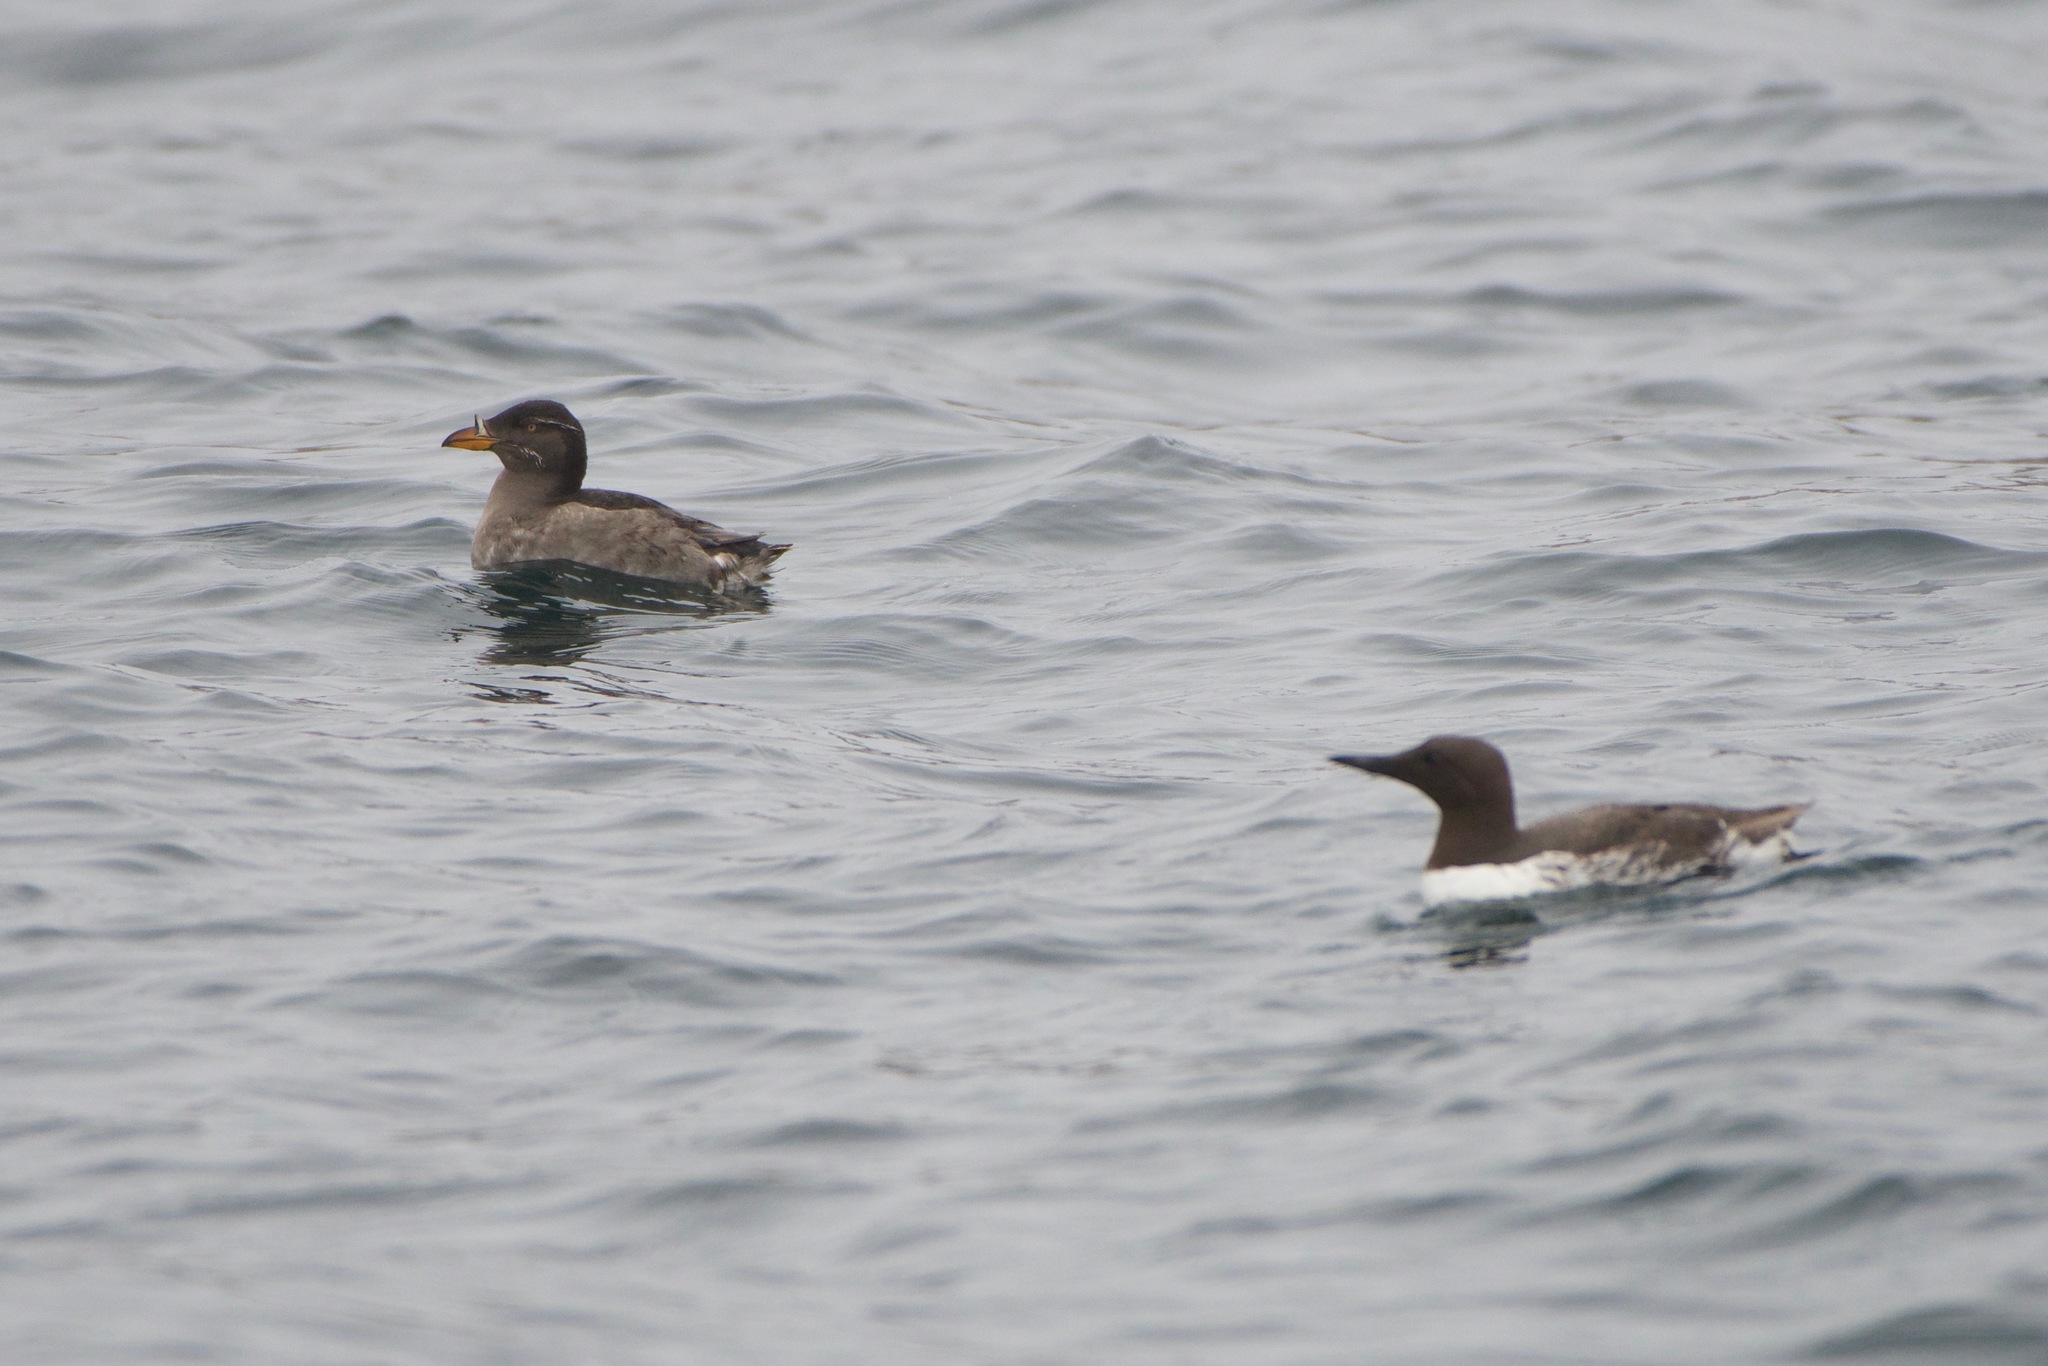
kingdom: Animalia
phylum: Chordata
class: Aves
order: Charadriiformes
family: Alcidae
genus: Cerorhinca
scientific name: Cerorhinca monocerata
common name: Rhinoceros auklet
